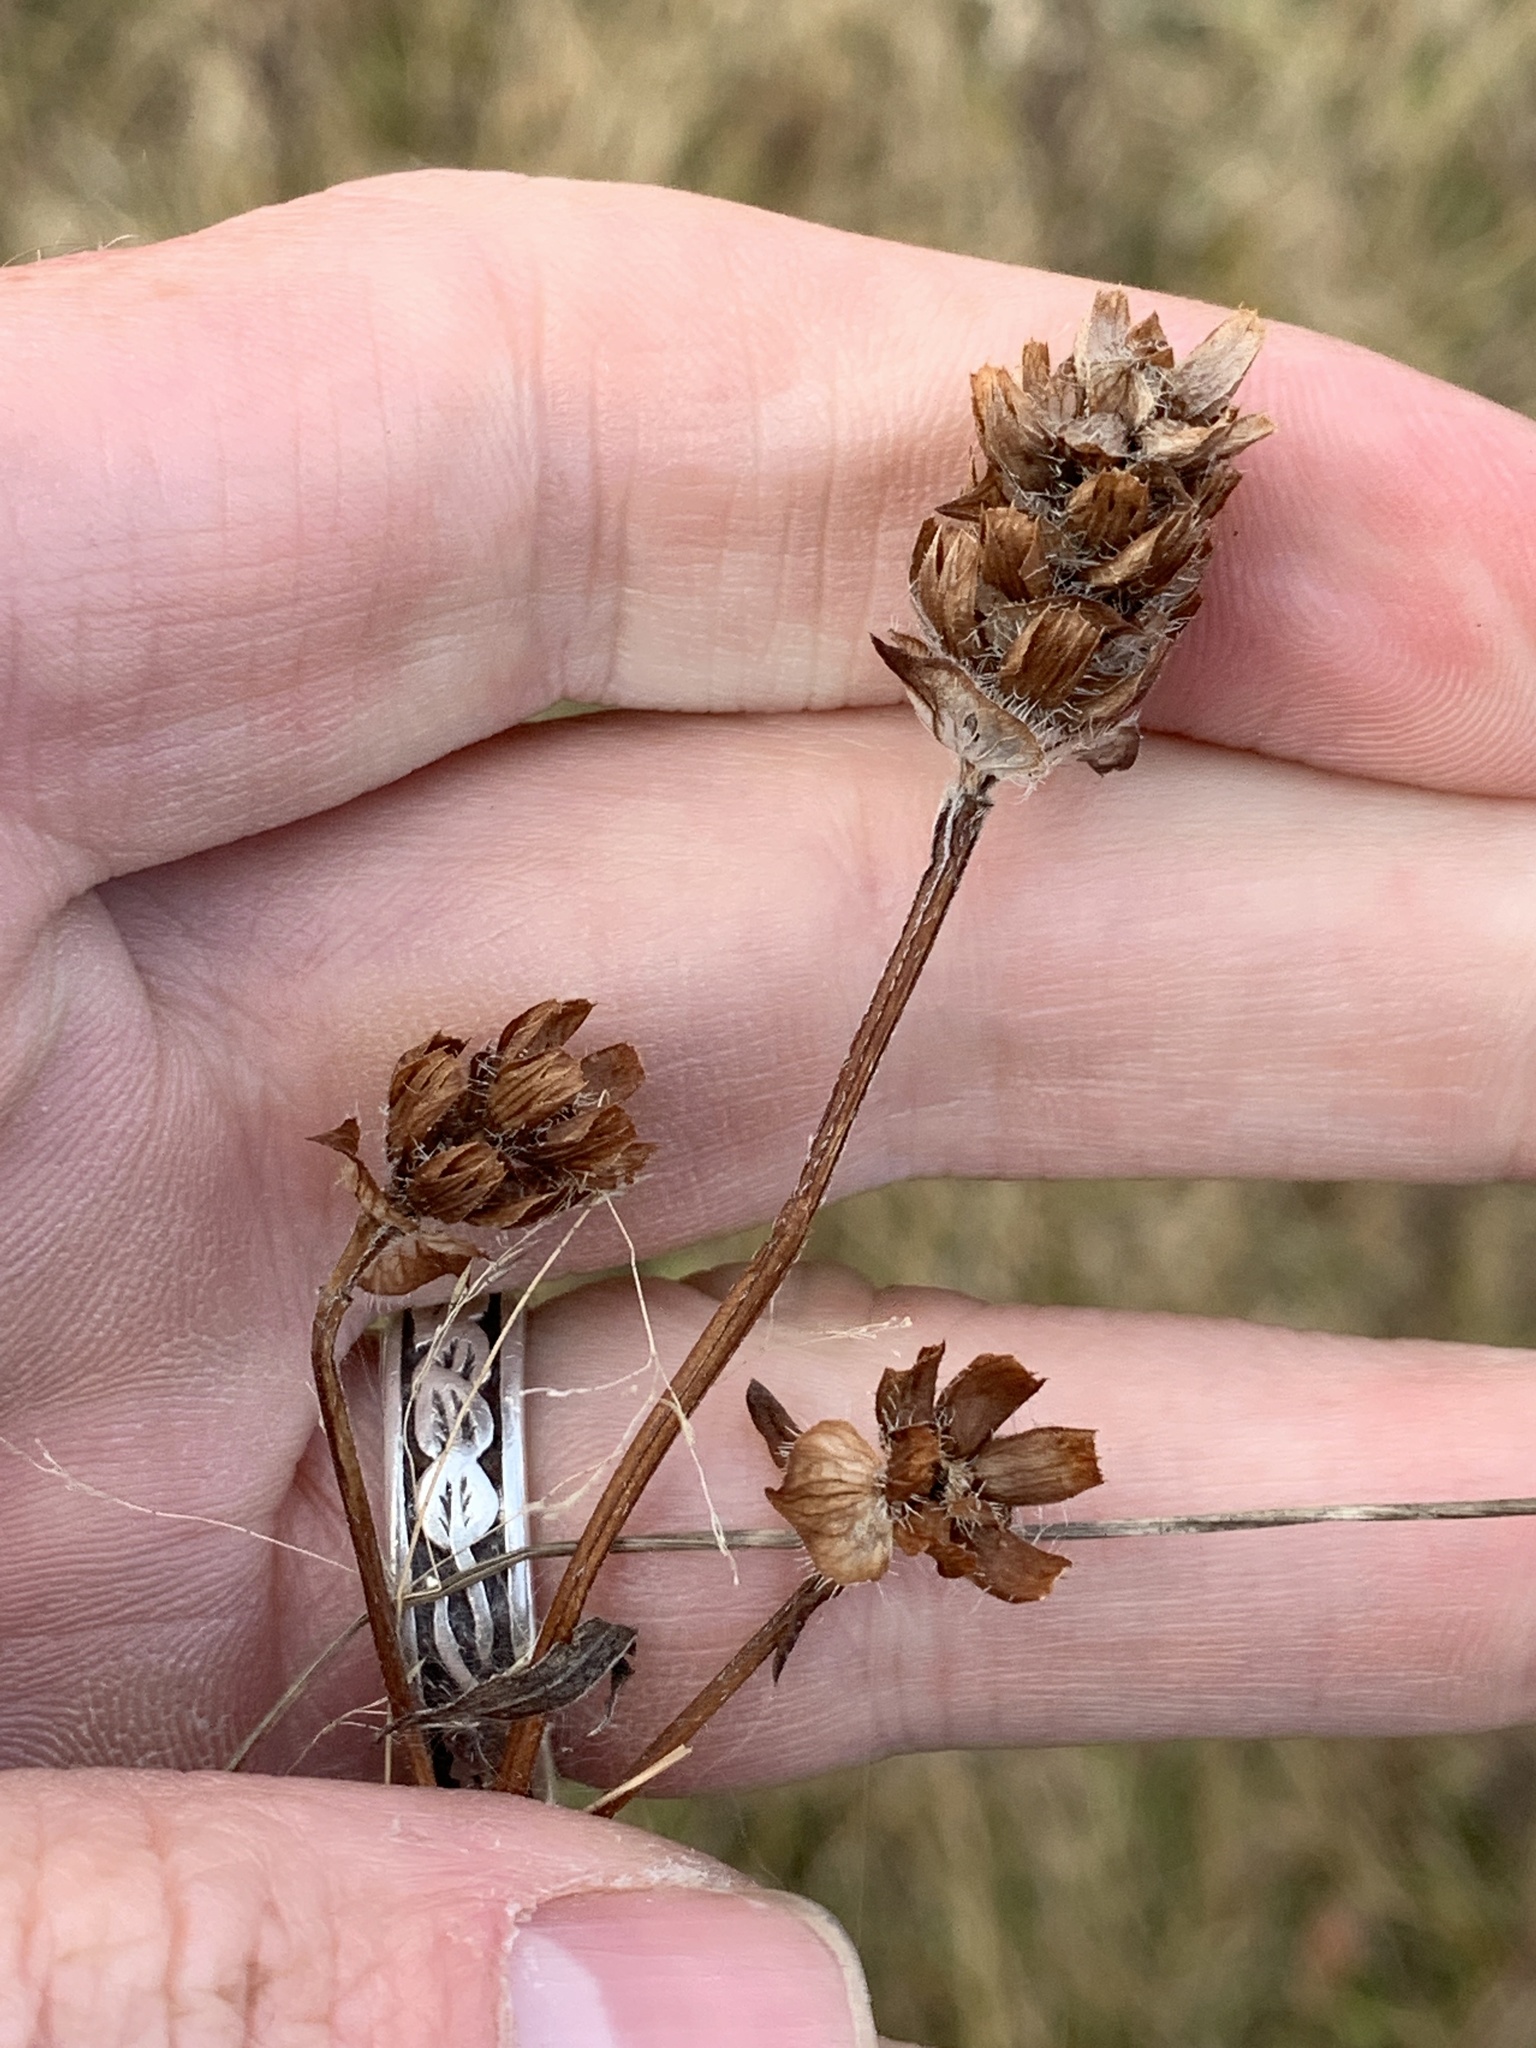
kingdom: Plantae
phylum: Tracheophyta
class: Magnoliopsida
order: Lamiales
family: Lamiaceae
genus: Prunella
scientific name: Prunella vulgaris
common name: Heal-all
